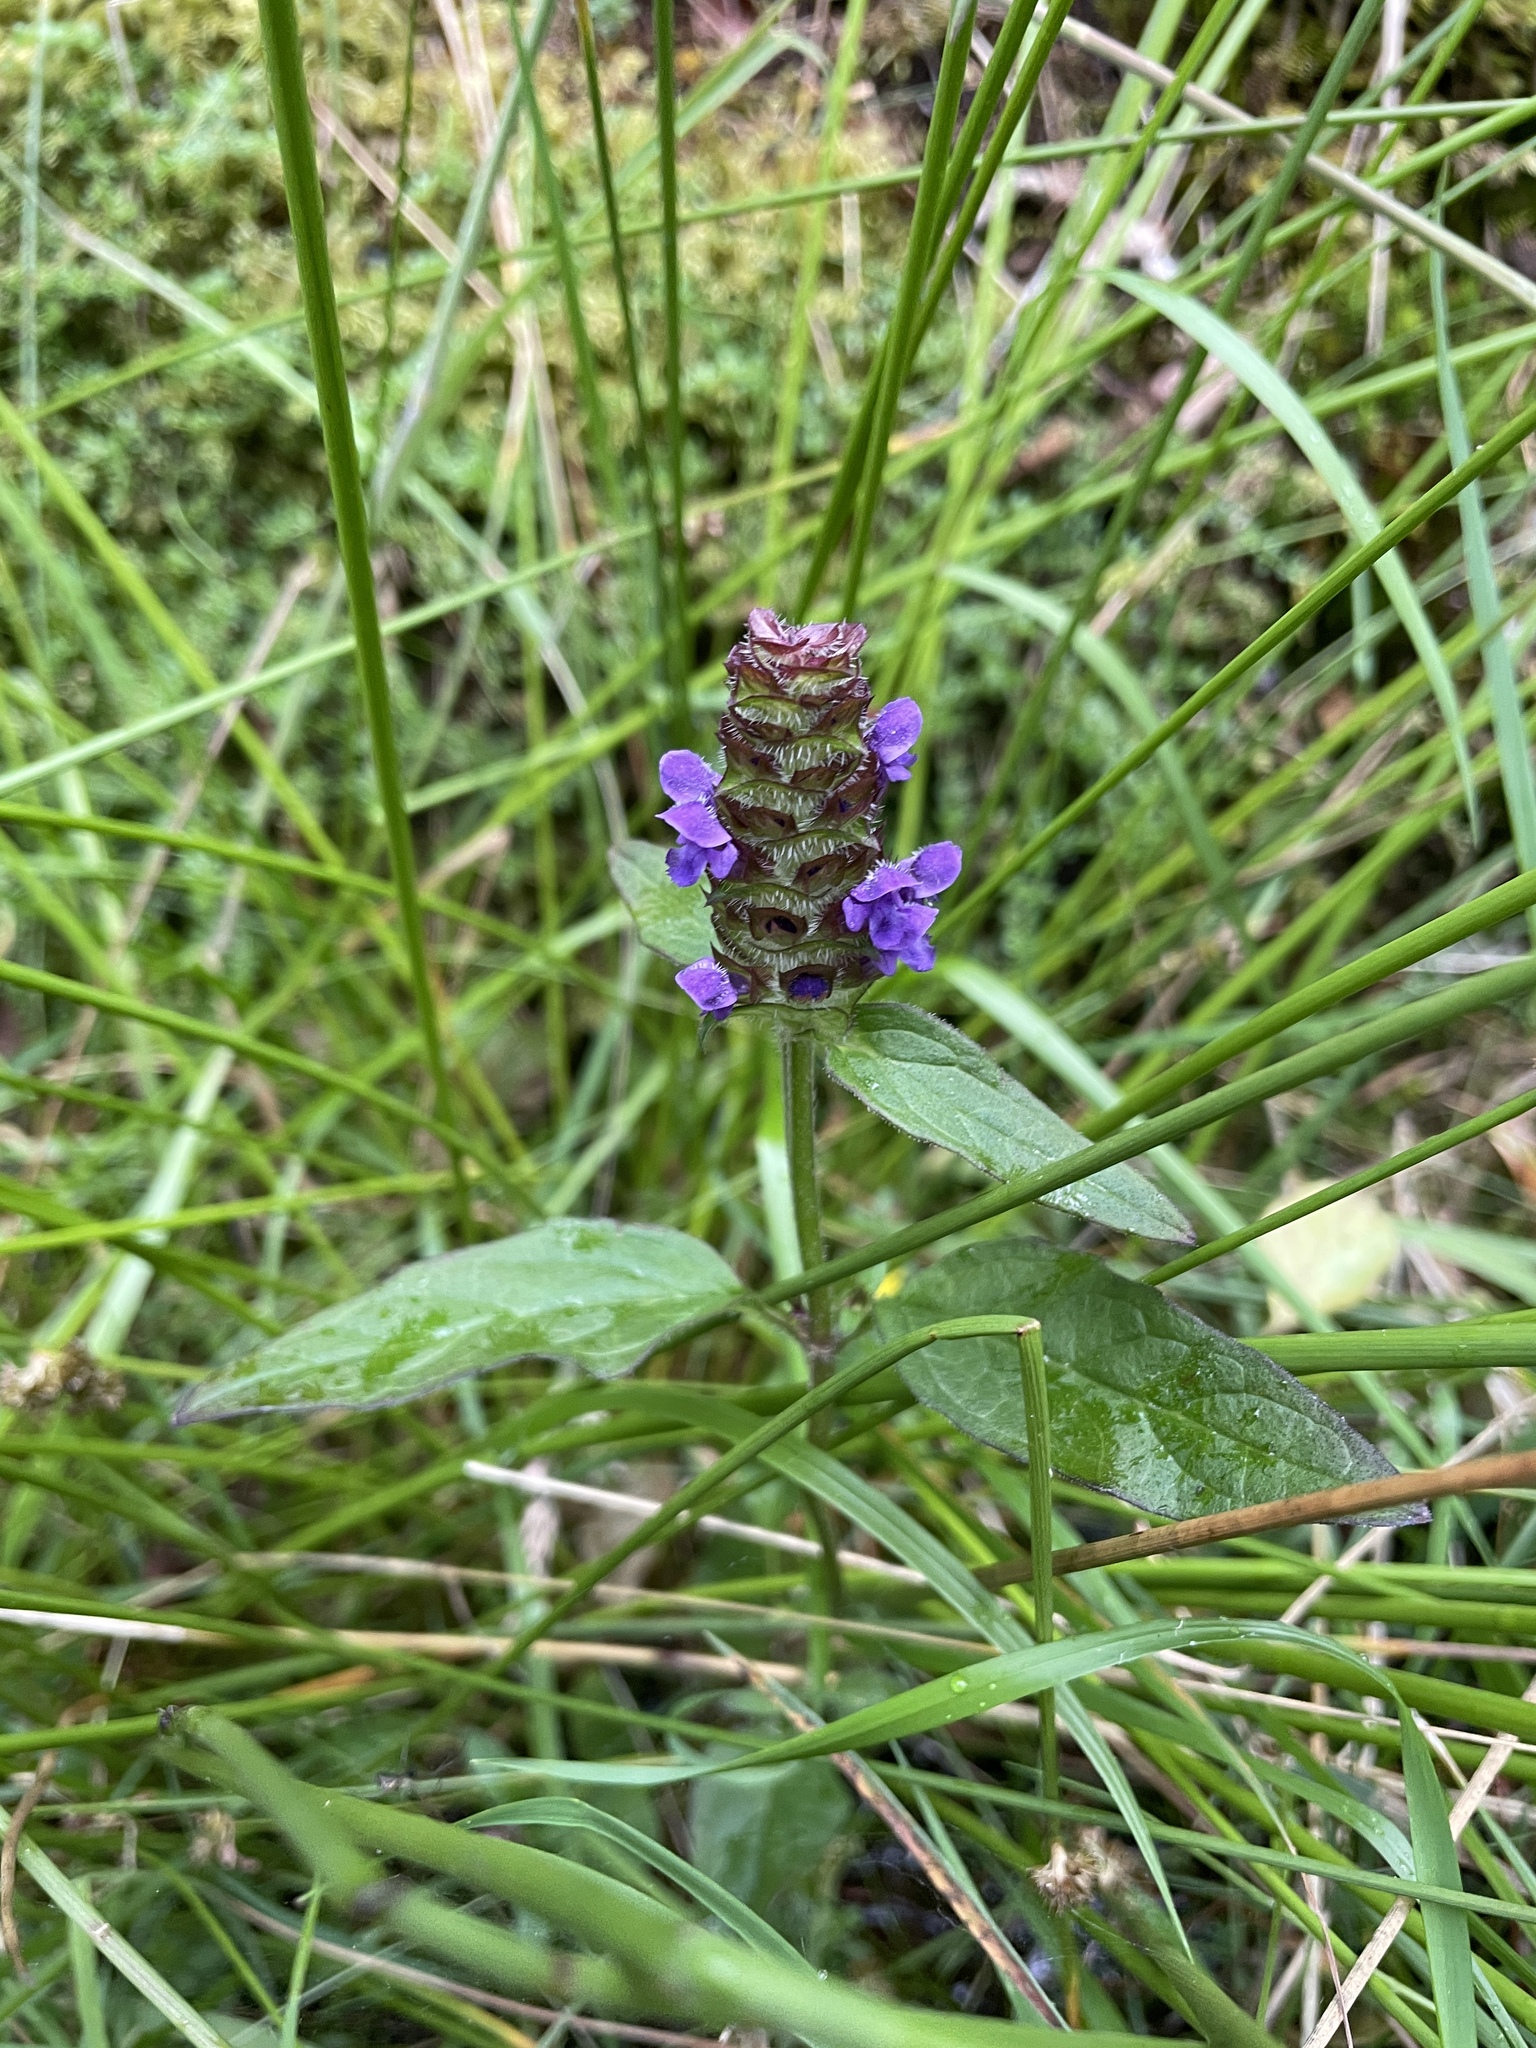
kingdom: Plantae
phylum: Tracheophyta
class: Magnoliopsida
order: Lamiales
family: Lamiaceae
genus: Prunella
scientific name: Prunella vulgaris
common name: Heal-all
